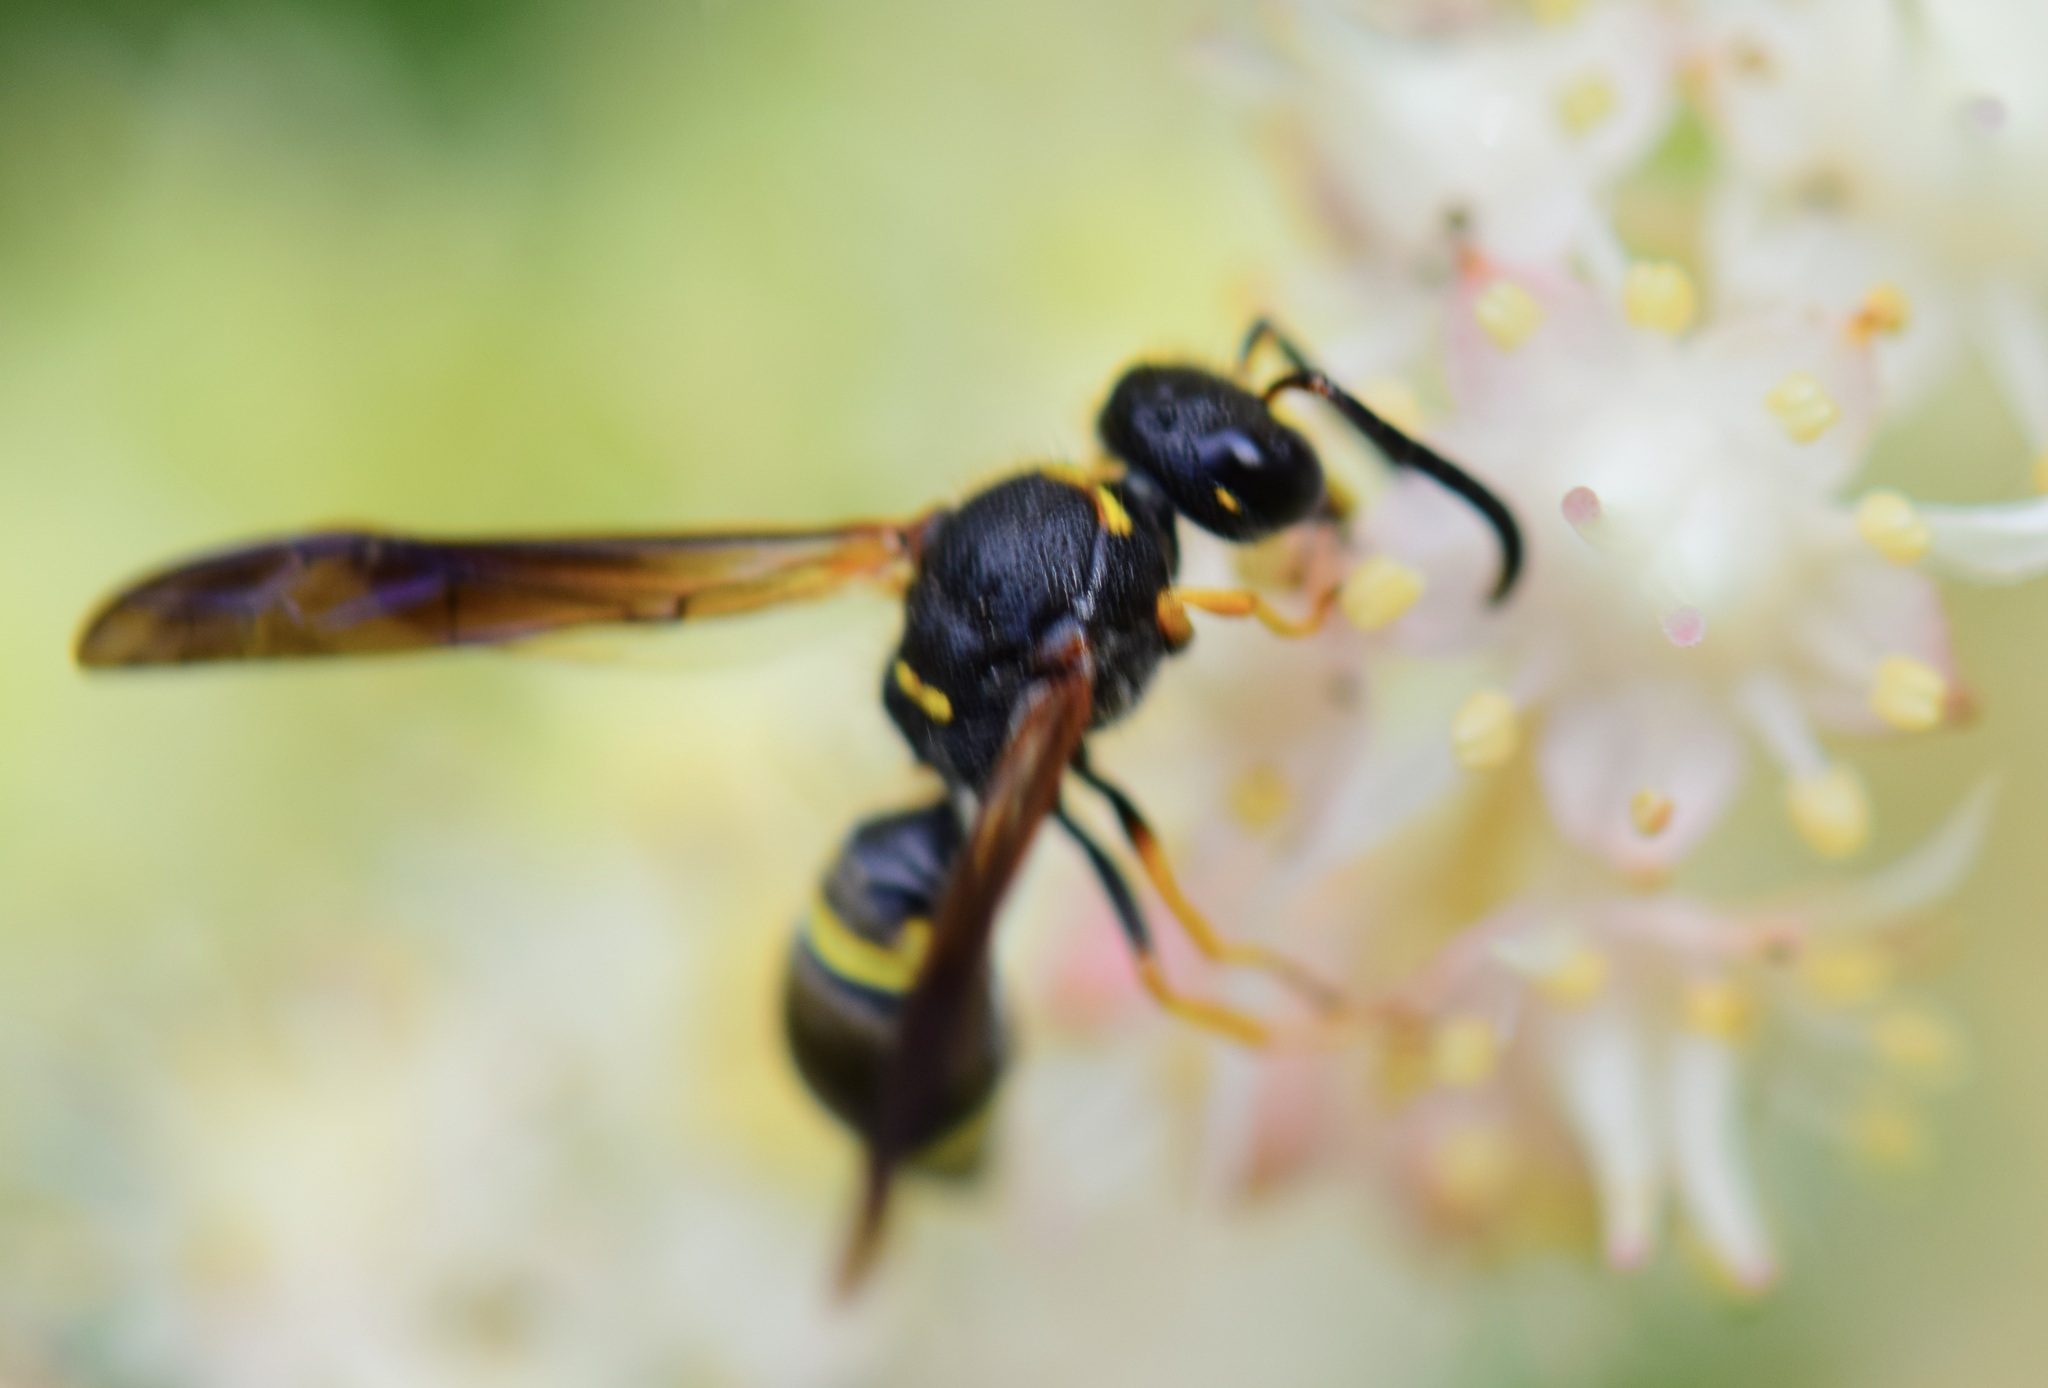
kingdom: Animalia
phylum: Arthropoda
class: Insecta
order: Hymenoptera
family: Vespidae
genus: Ancistrocerus
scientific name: Ancistrocerus unifasciatus
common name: One-banded mason wasp
